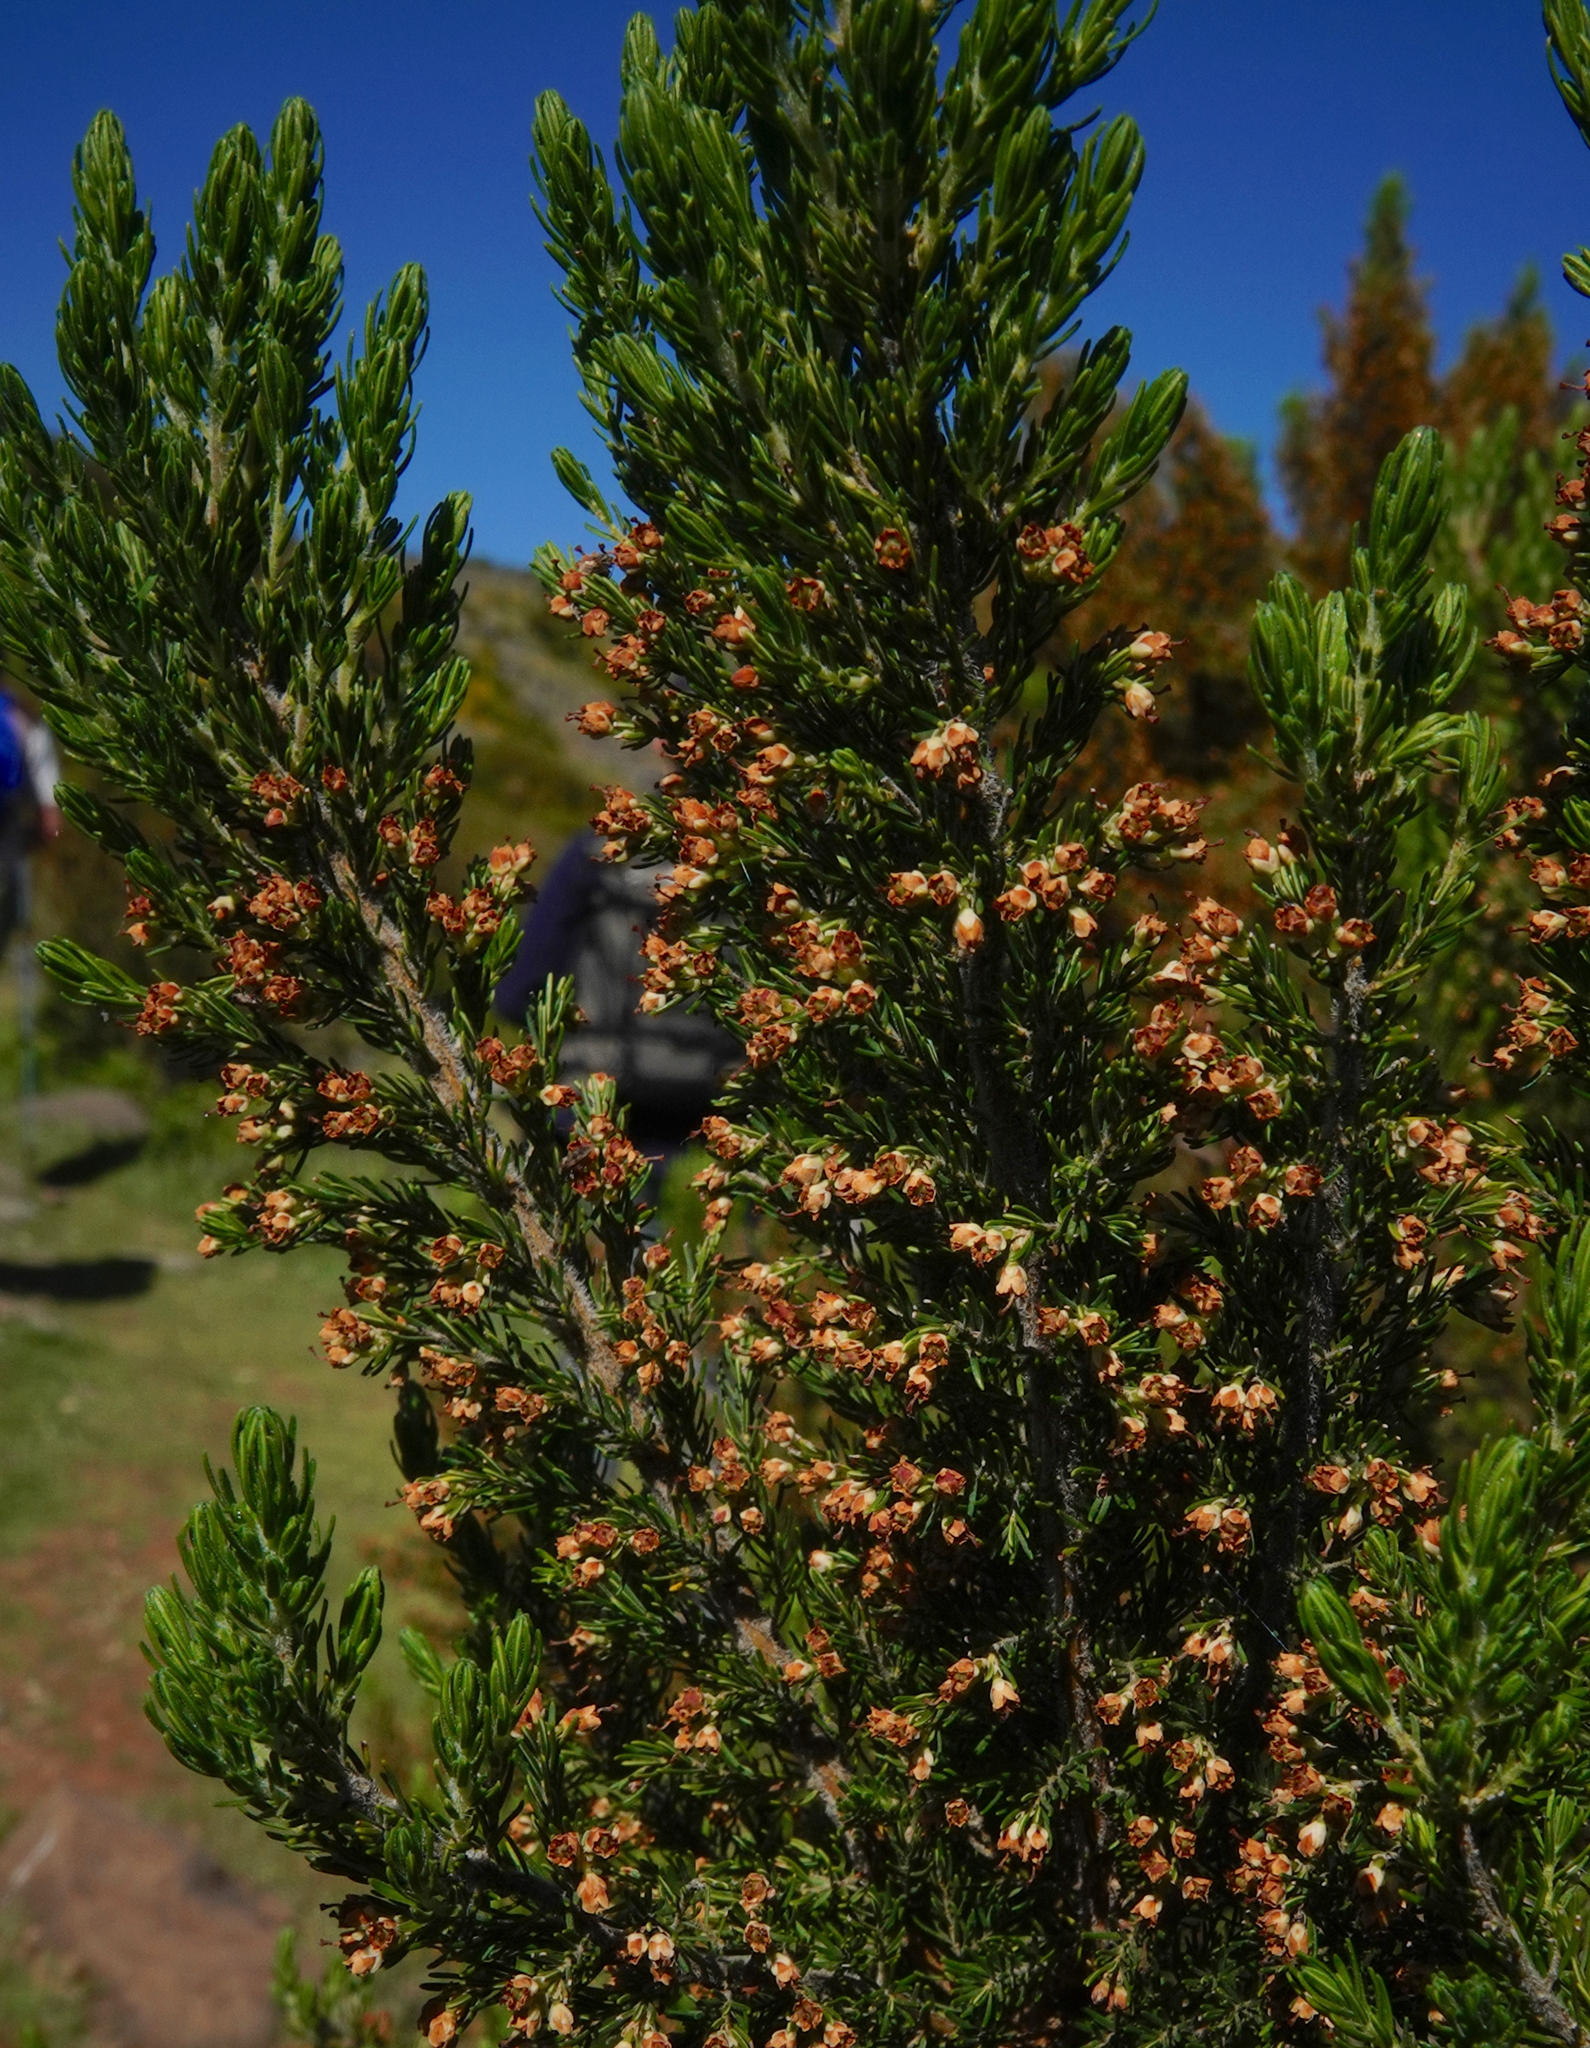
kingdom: Plantae
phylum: Tracheophyta
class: Magnoliopsida
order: Ericales
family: Ericaceae
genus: Erica
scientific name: Erica canariensis
